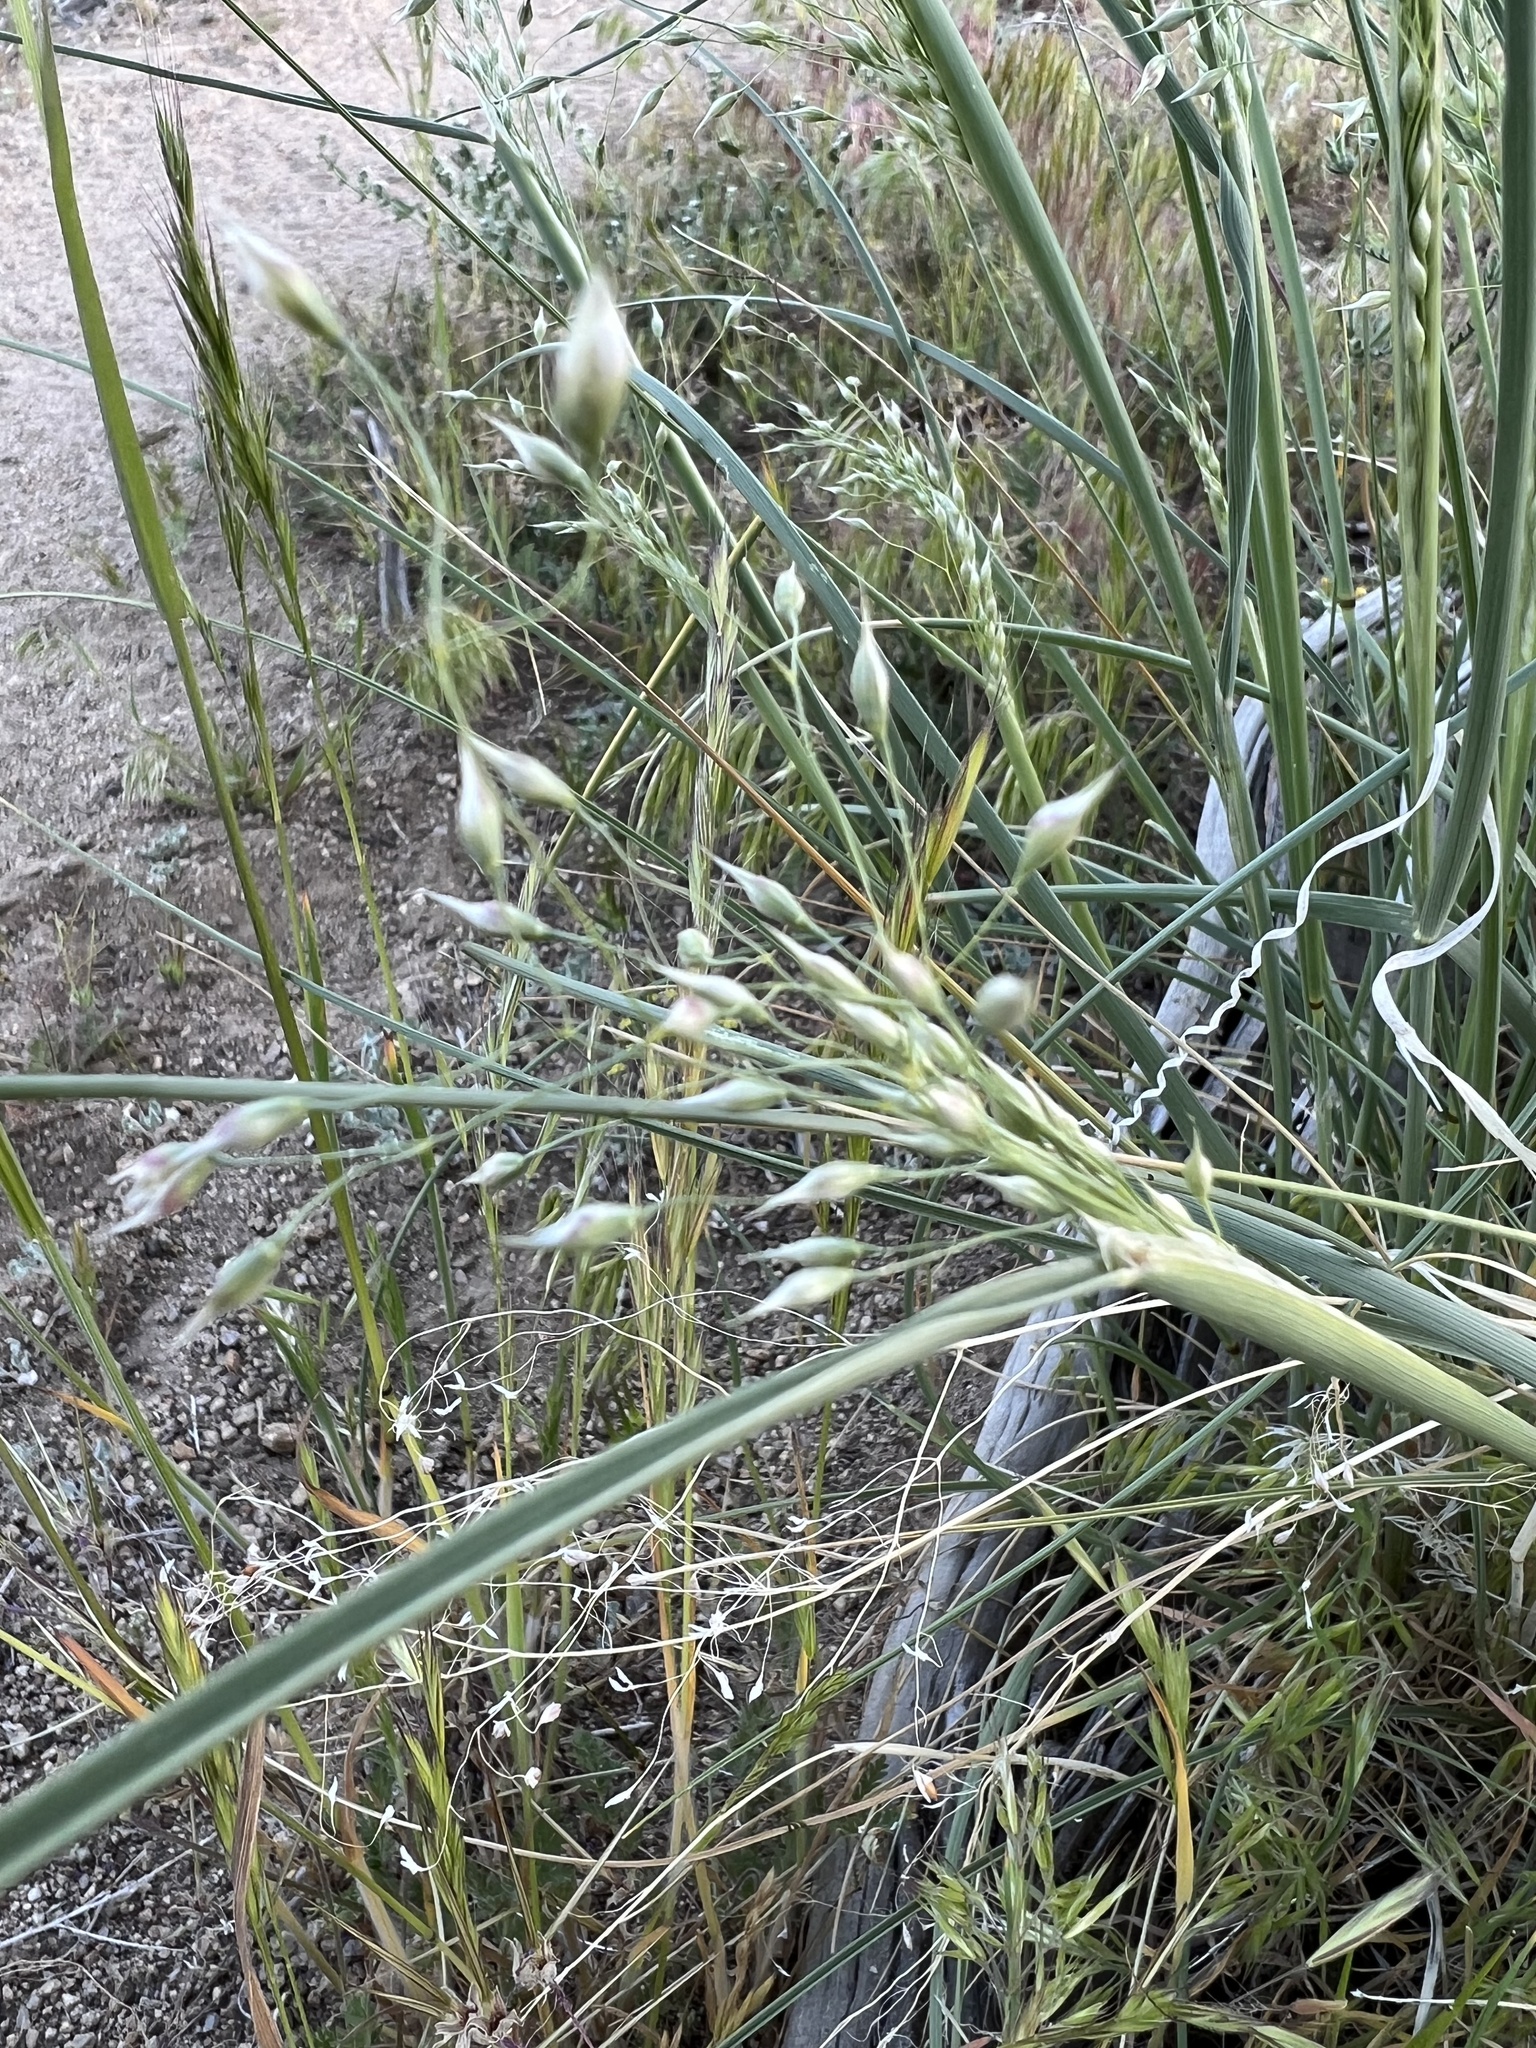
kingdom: Plantae
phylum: Tracheophyta
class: Liliopsida
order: Poales
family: Poaceae
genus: Eriocoma
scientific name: Eriocoma hymenoides
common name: Indian mountain ricegrass
